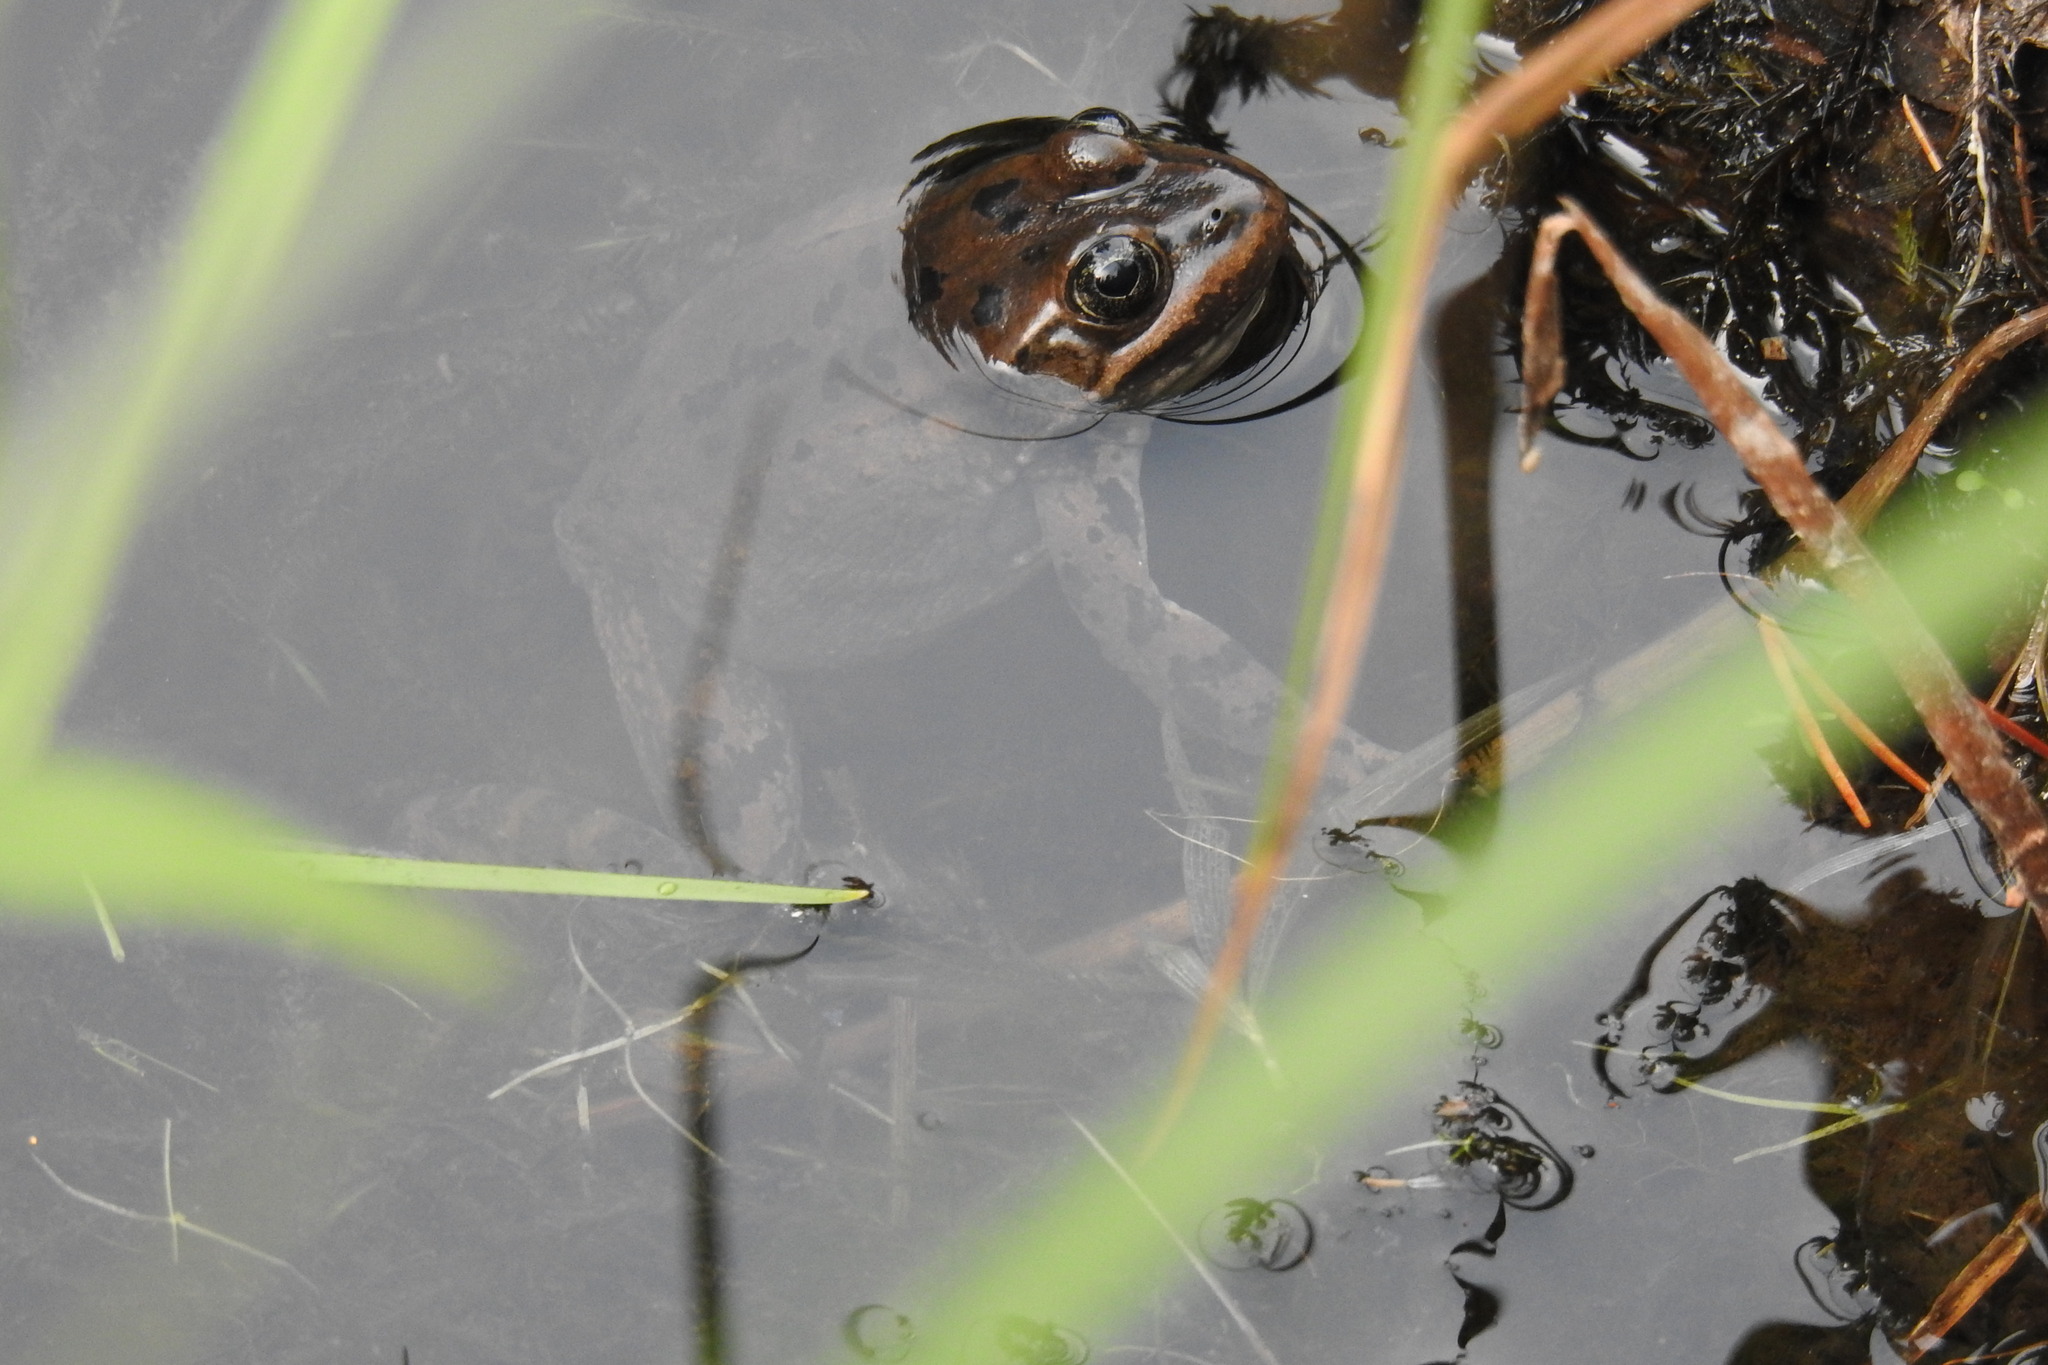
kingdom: Animalia
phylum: Chordata
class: Amphibia
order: Anura
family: Ranidae
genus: Rana
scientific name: Rana luteiventris
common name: Columbia spotted frog
